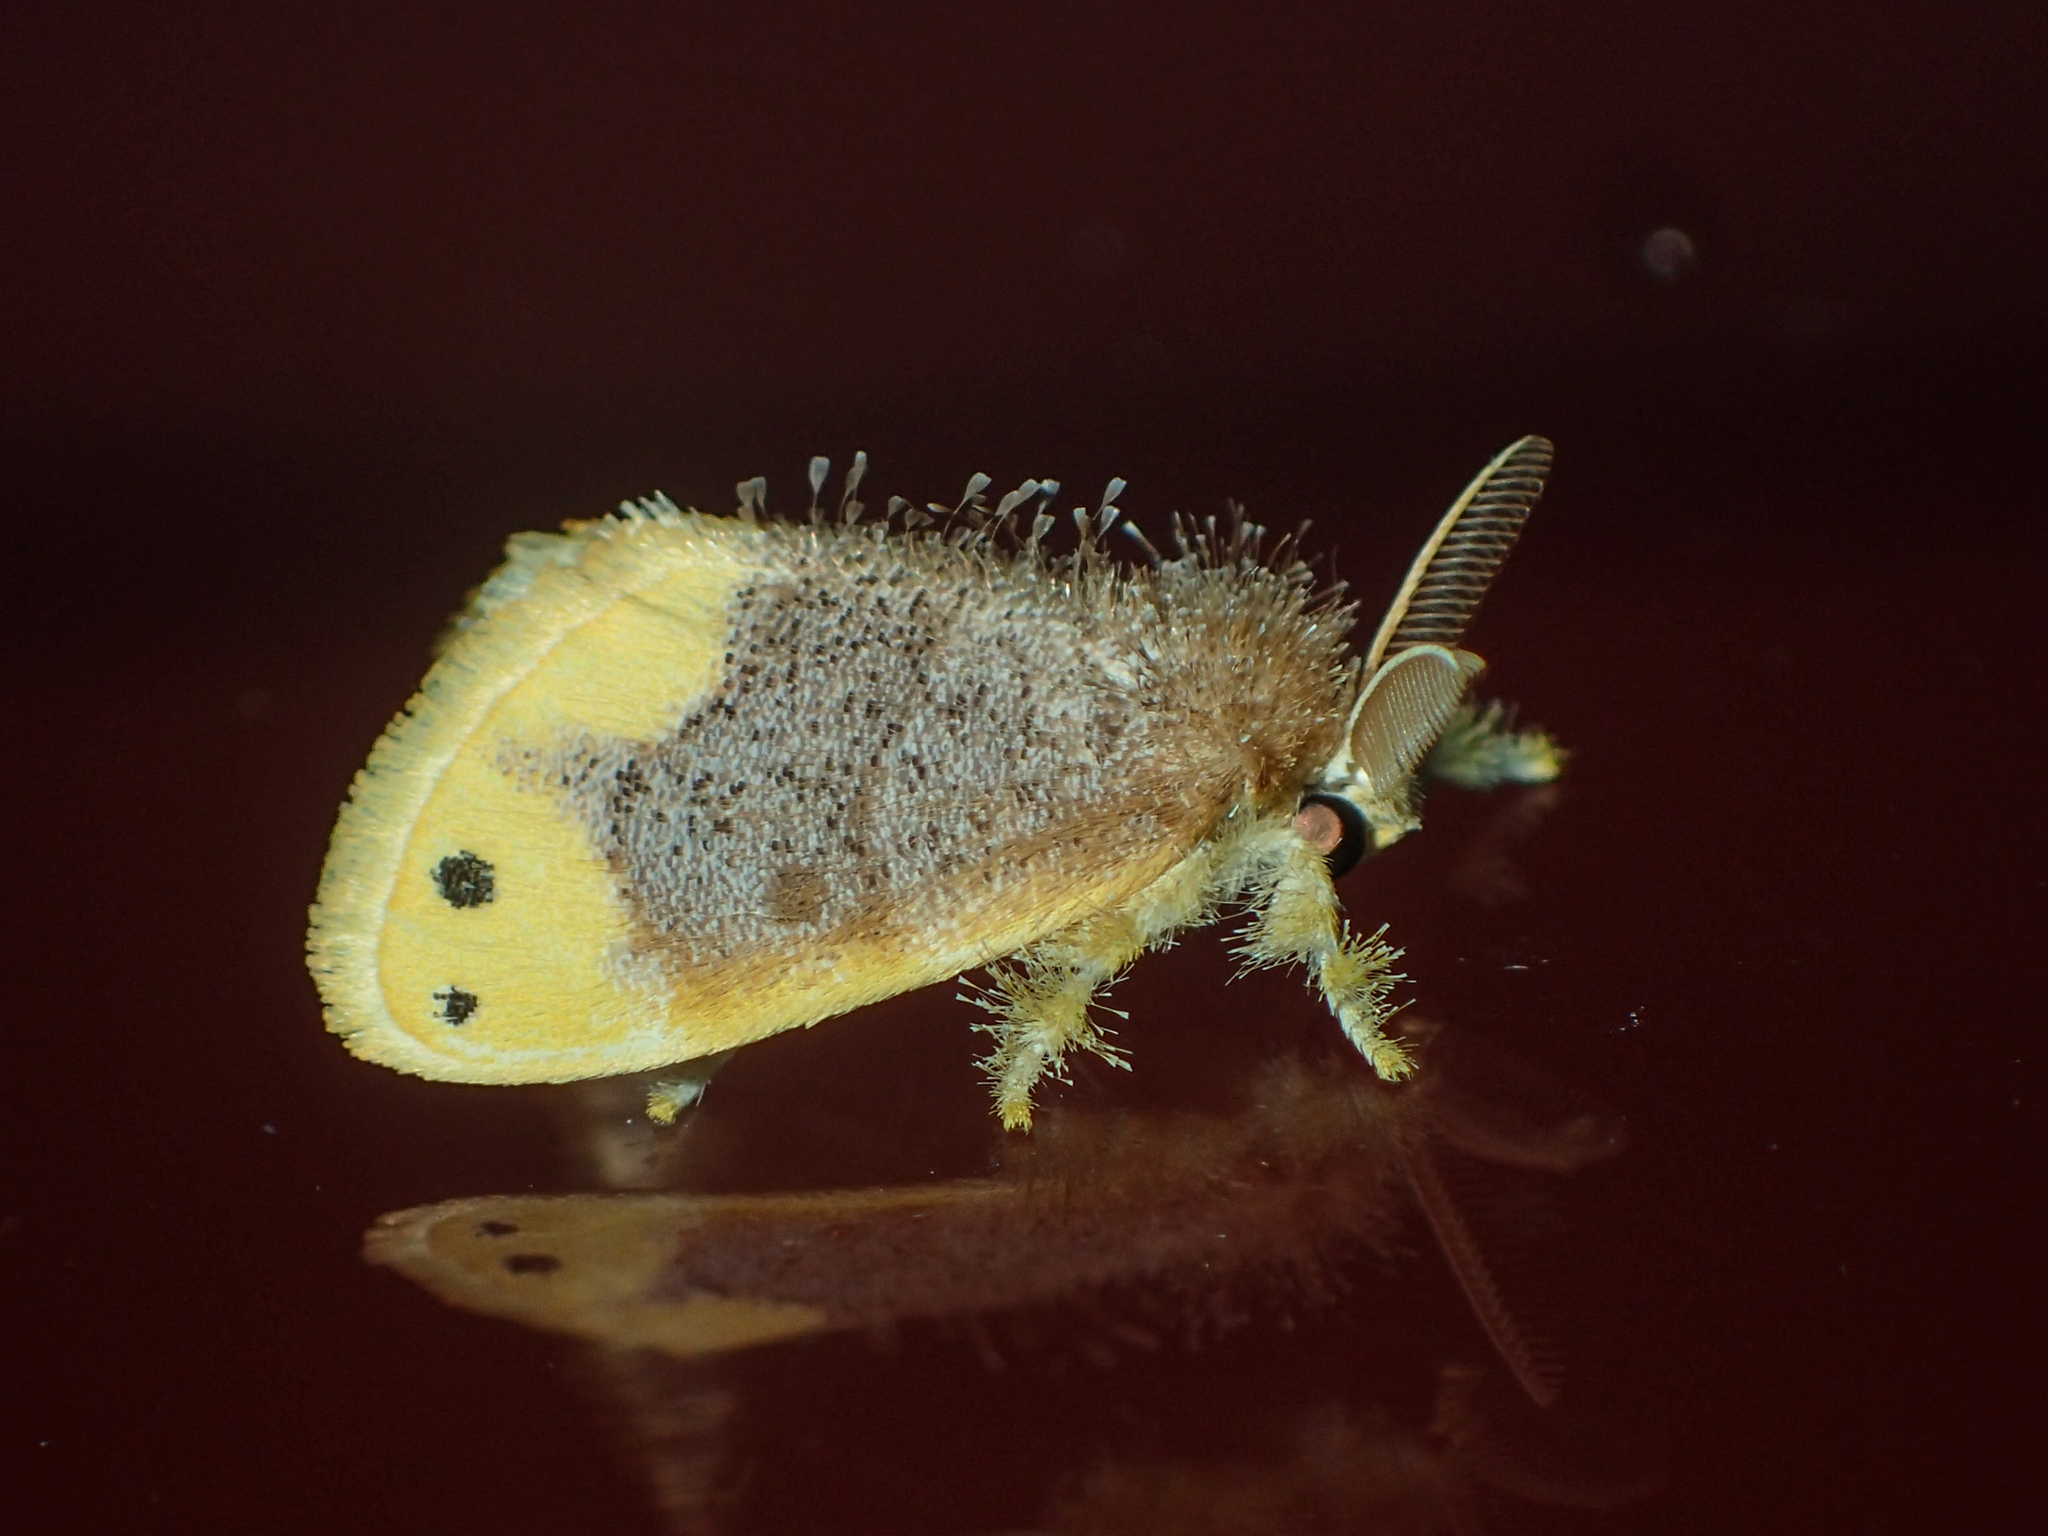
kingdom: Animalia
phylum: Arthropoda
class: Insecta
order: Lepidoptera
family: Erebidae
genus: Arna
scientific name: Arna bipunctapex
